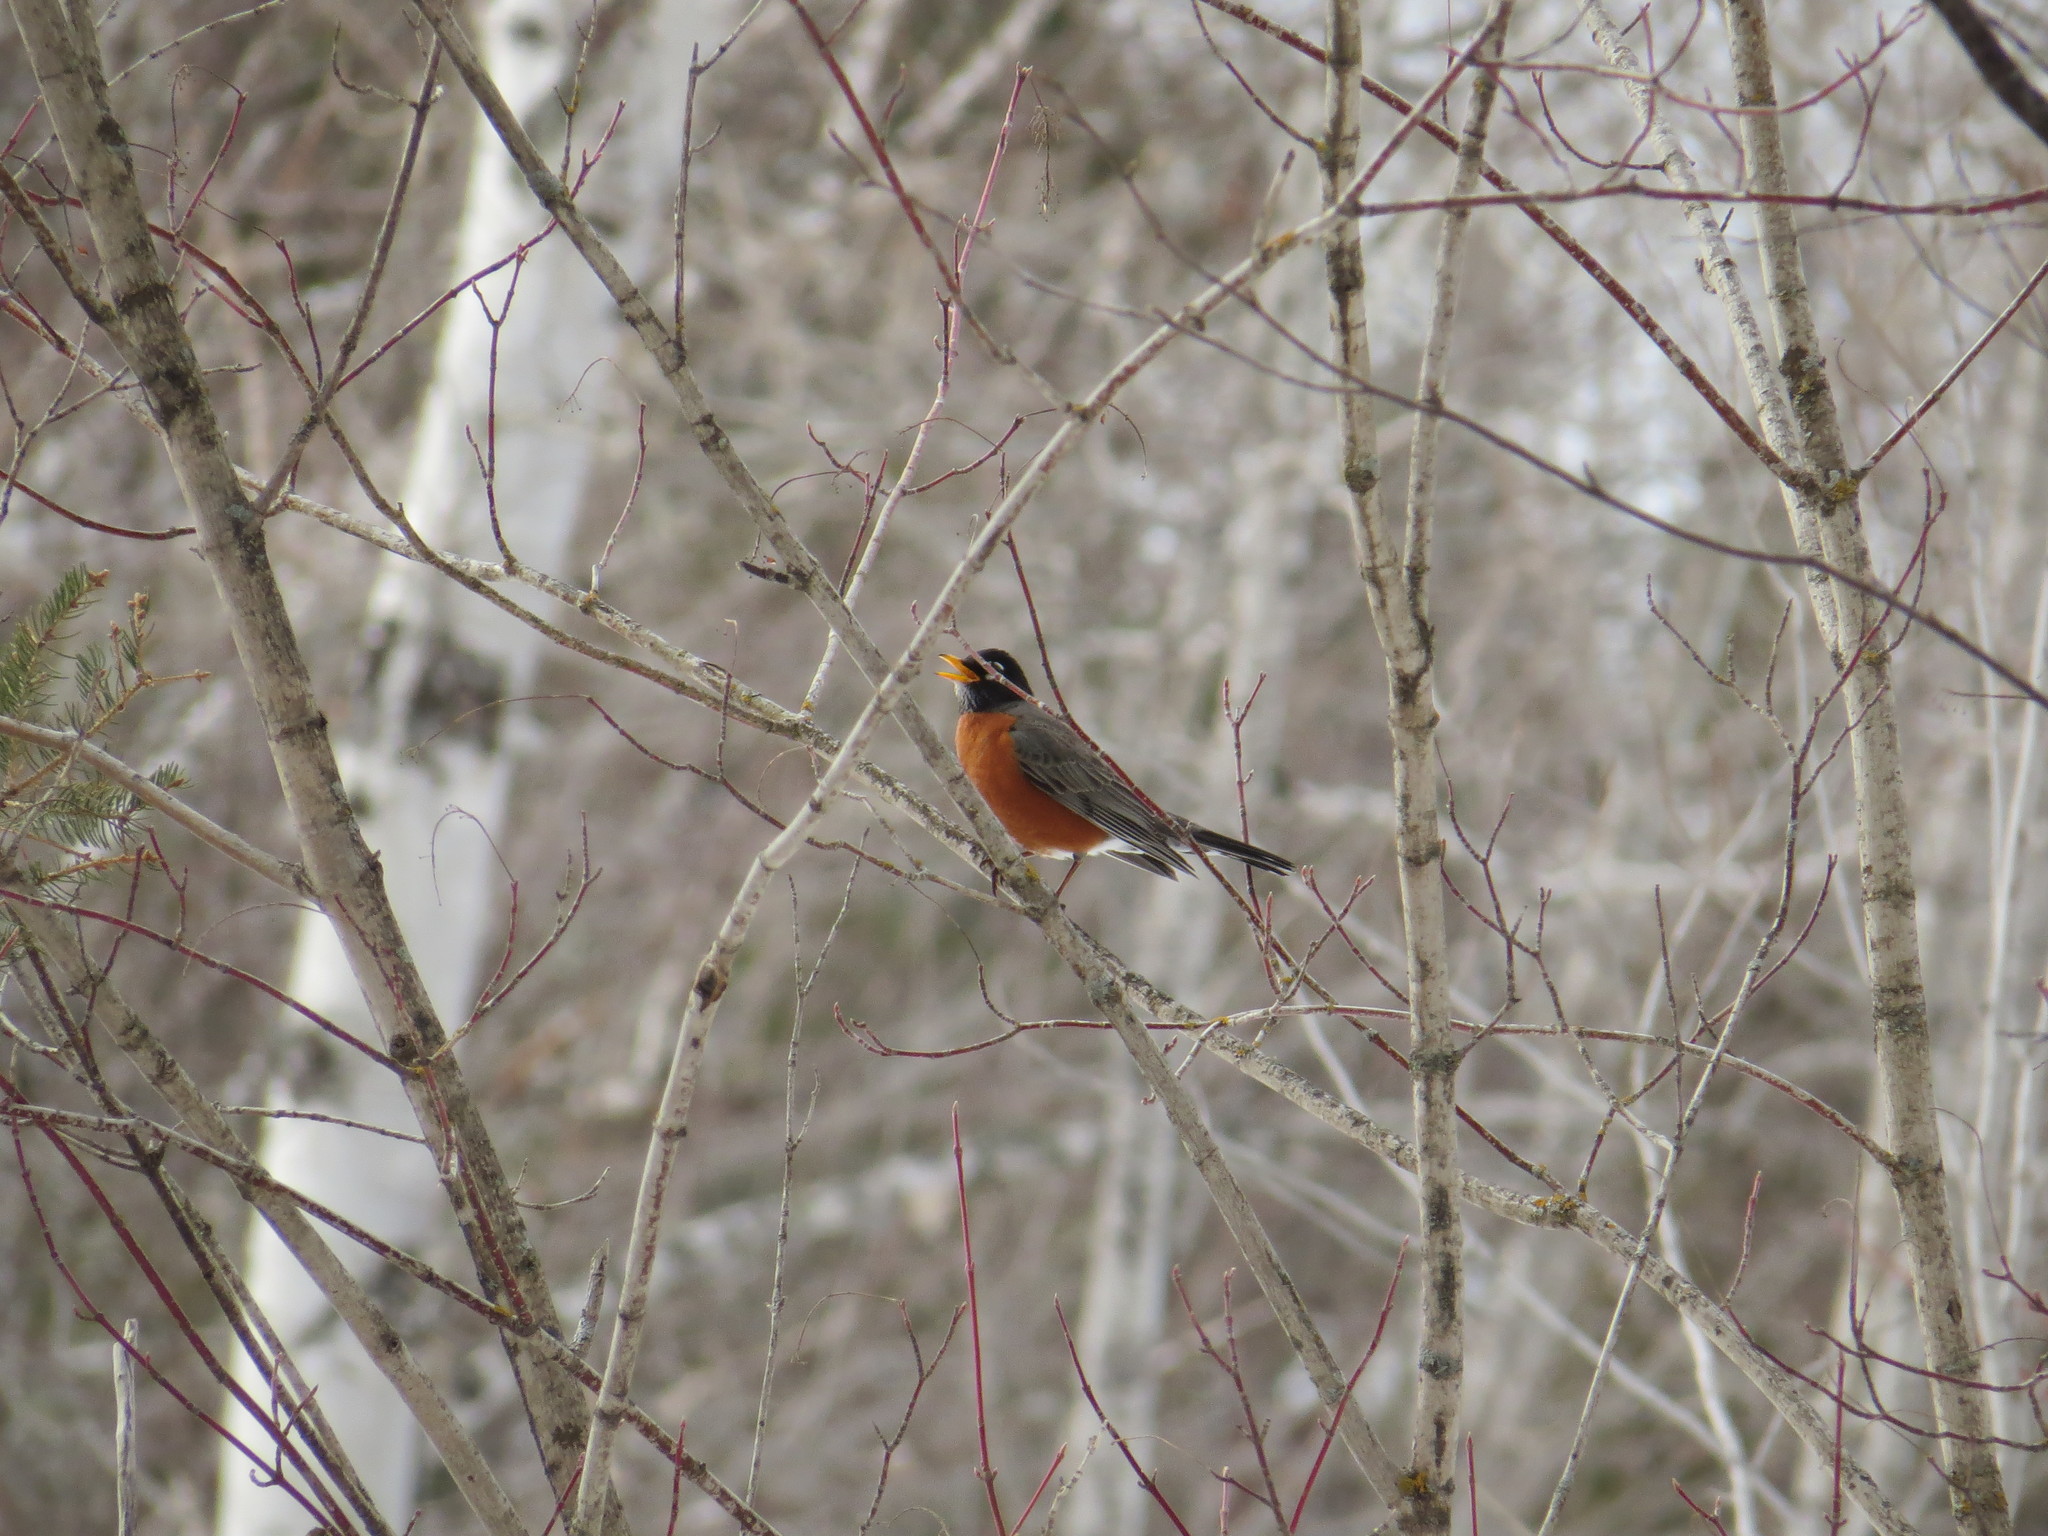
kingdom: Animalia
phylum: Chordata
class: Aves
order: Passeriformes
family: Turdidae
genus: Turdus
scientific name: Turdus migratorius
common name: American robin
